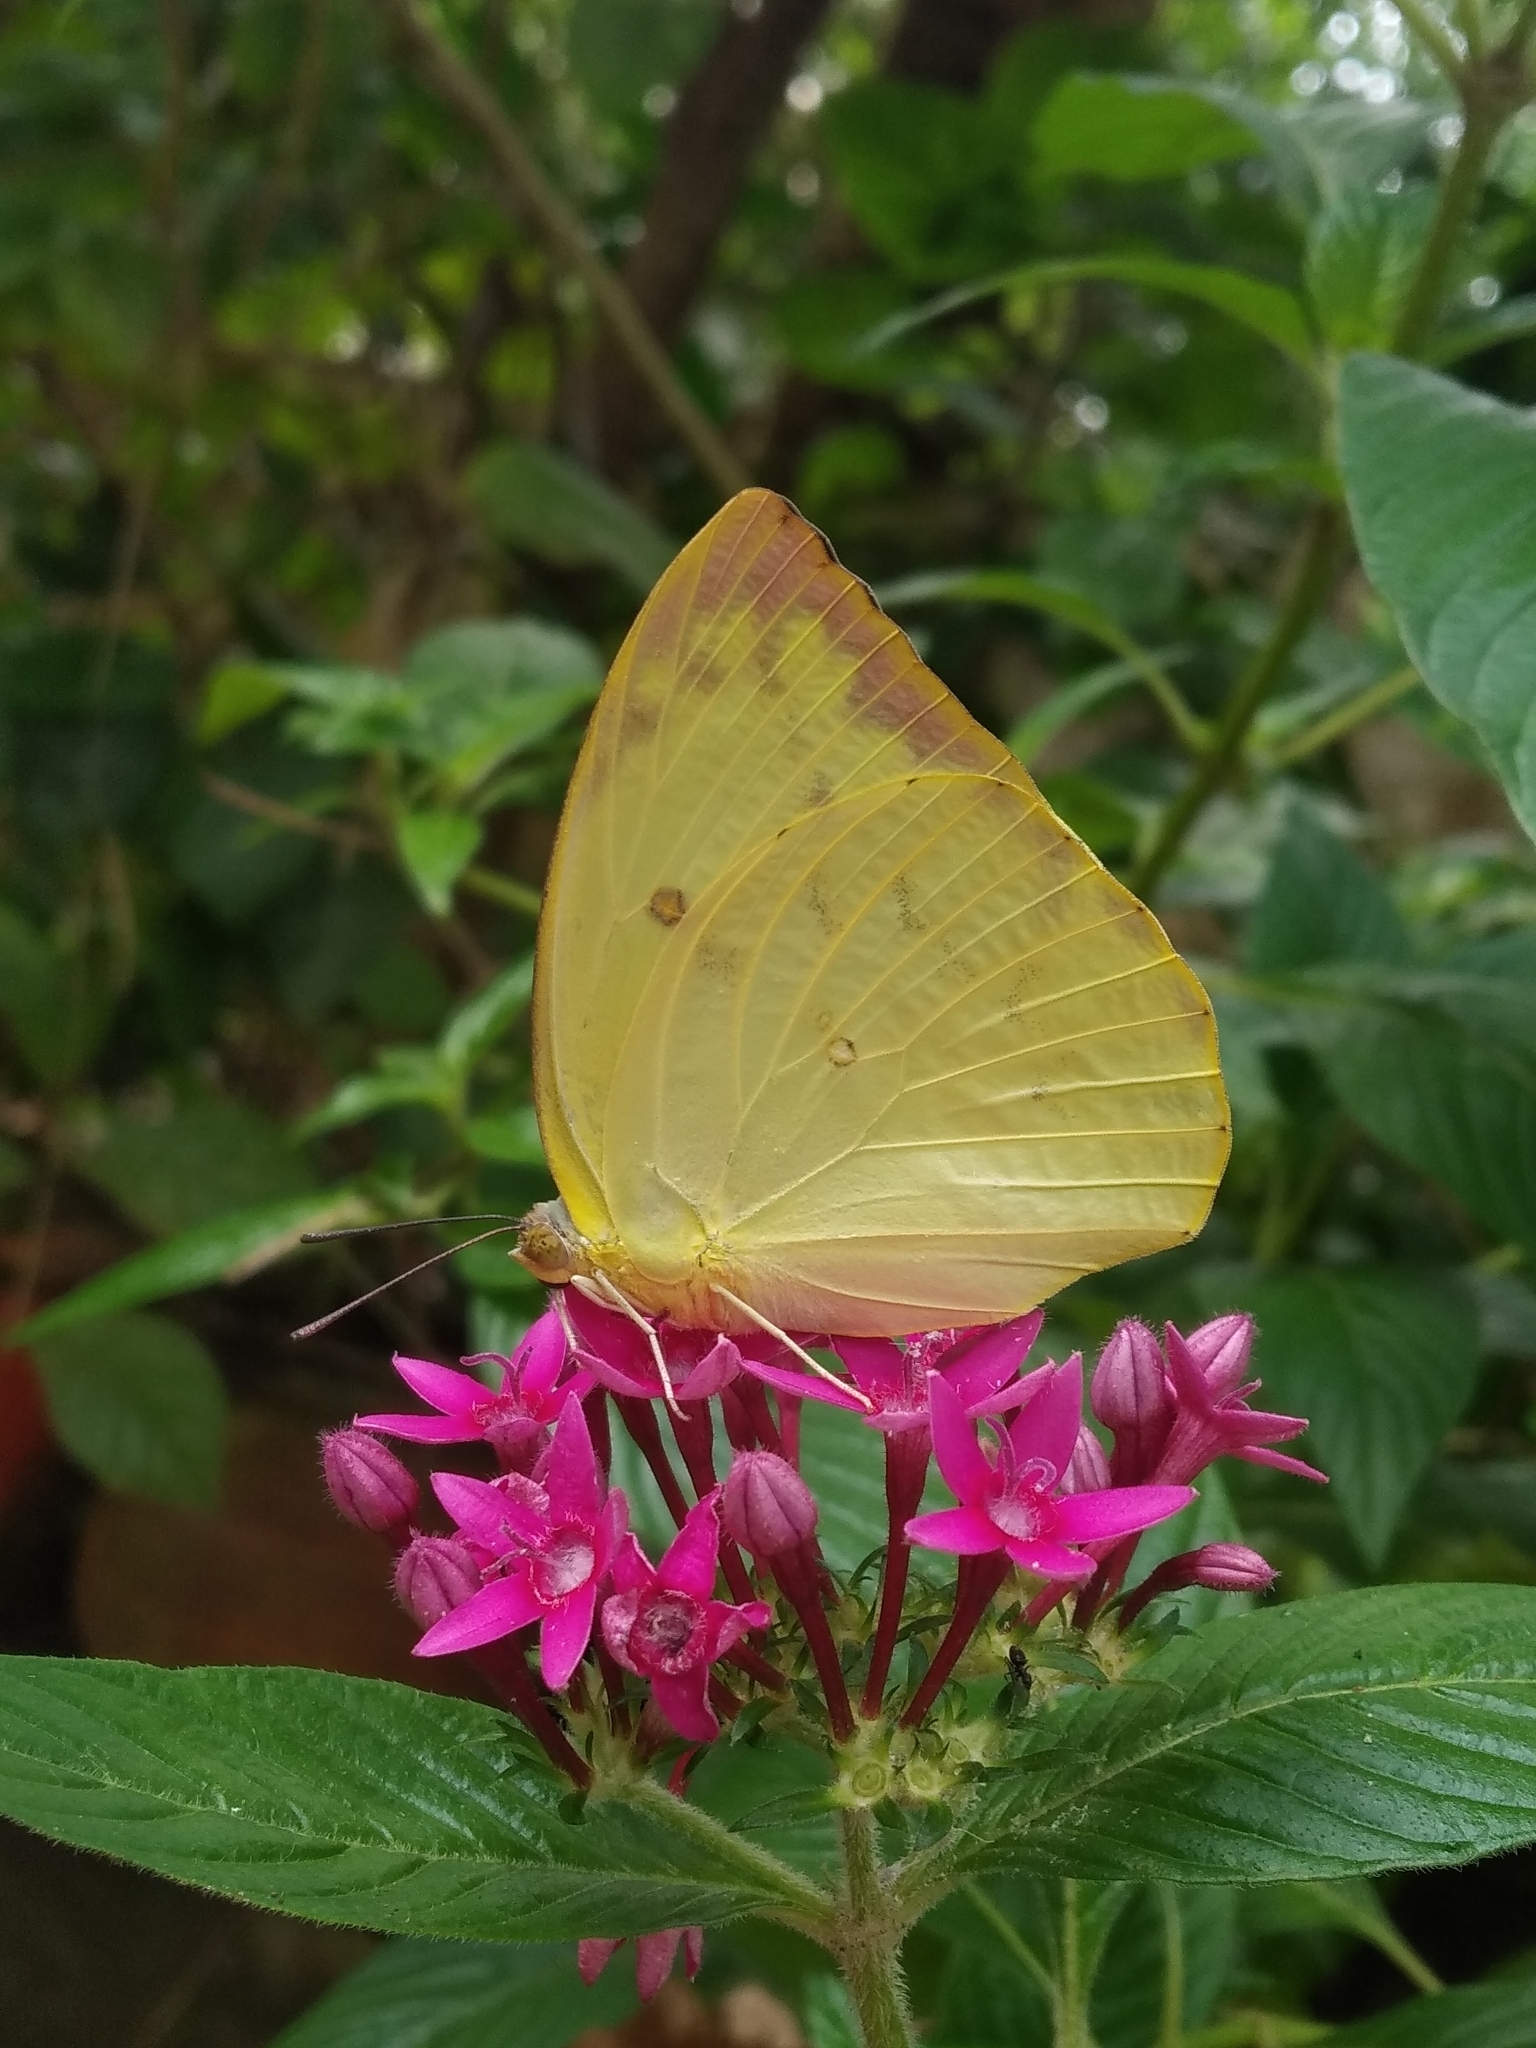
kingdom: Animalia
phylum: Arthropoda
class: Insecta
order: Lepidoptera
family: Pieridae
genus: Catopsilia
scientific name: Catopsilia pomona
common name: Common emigrant
